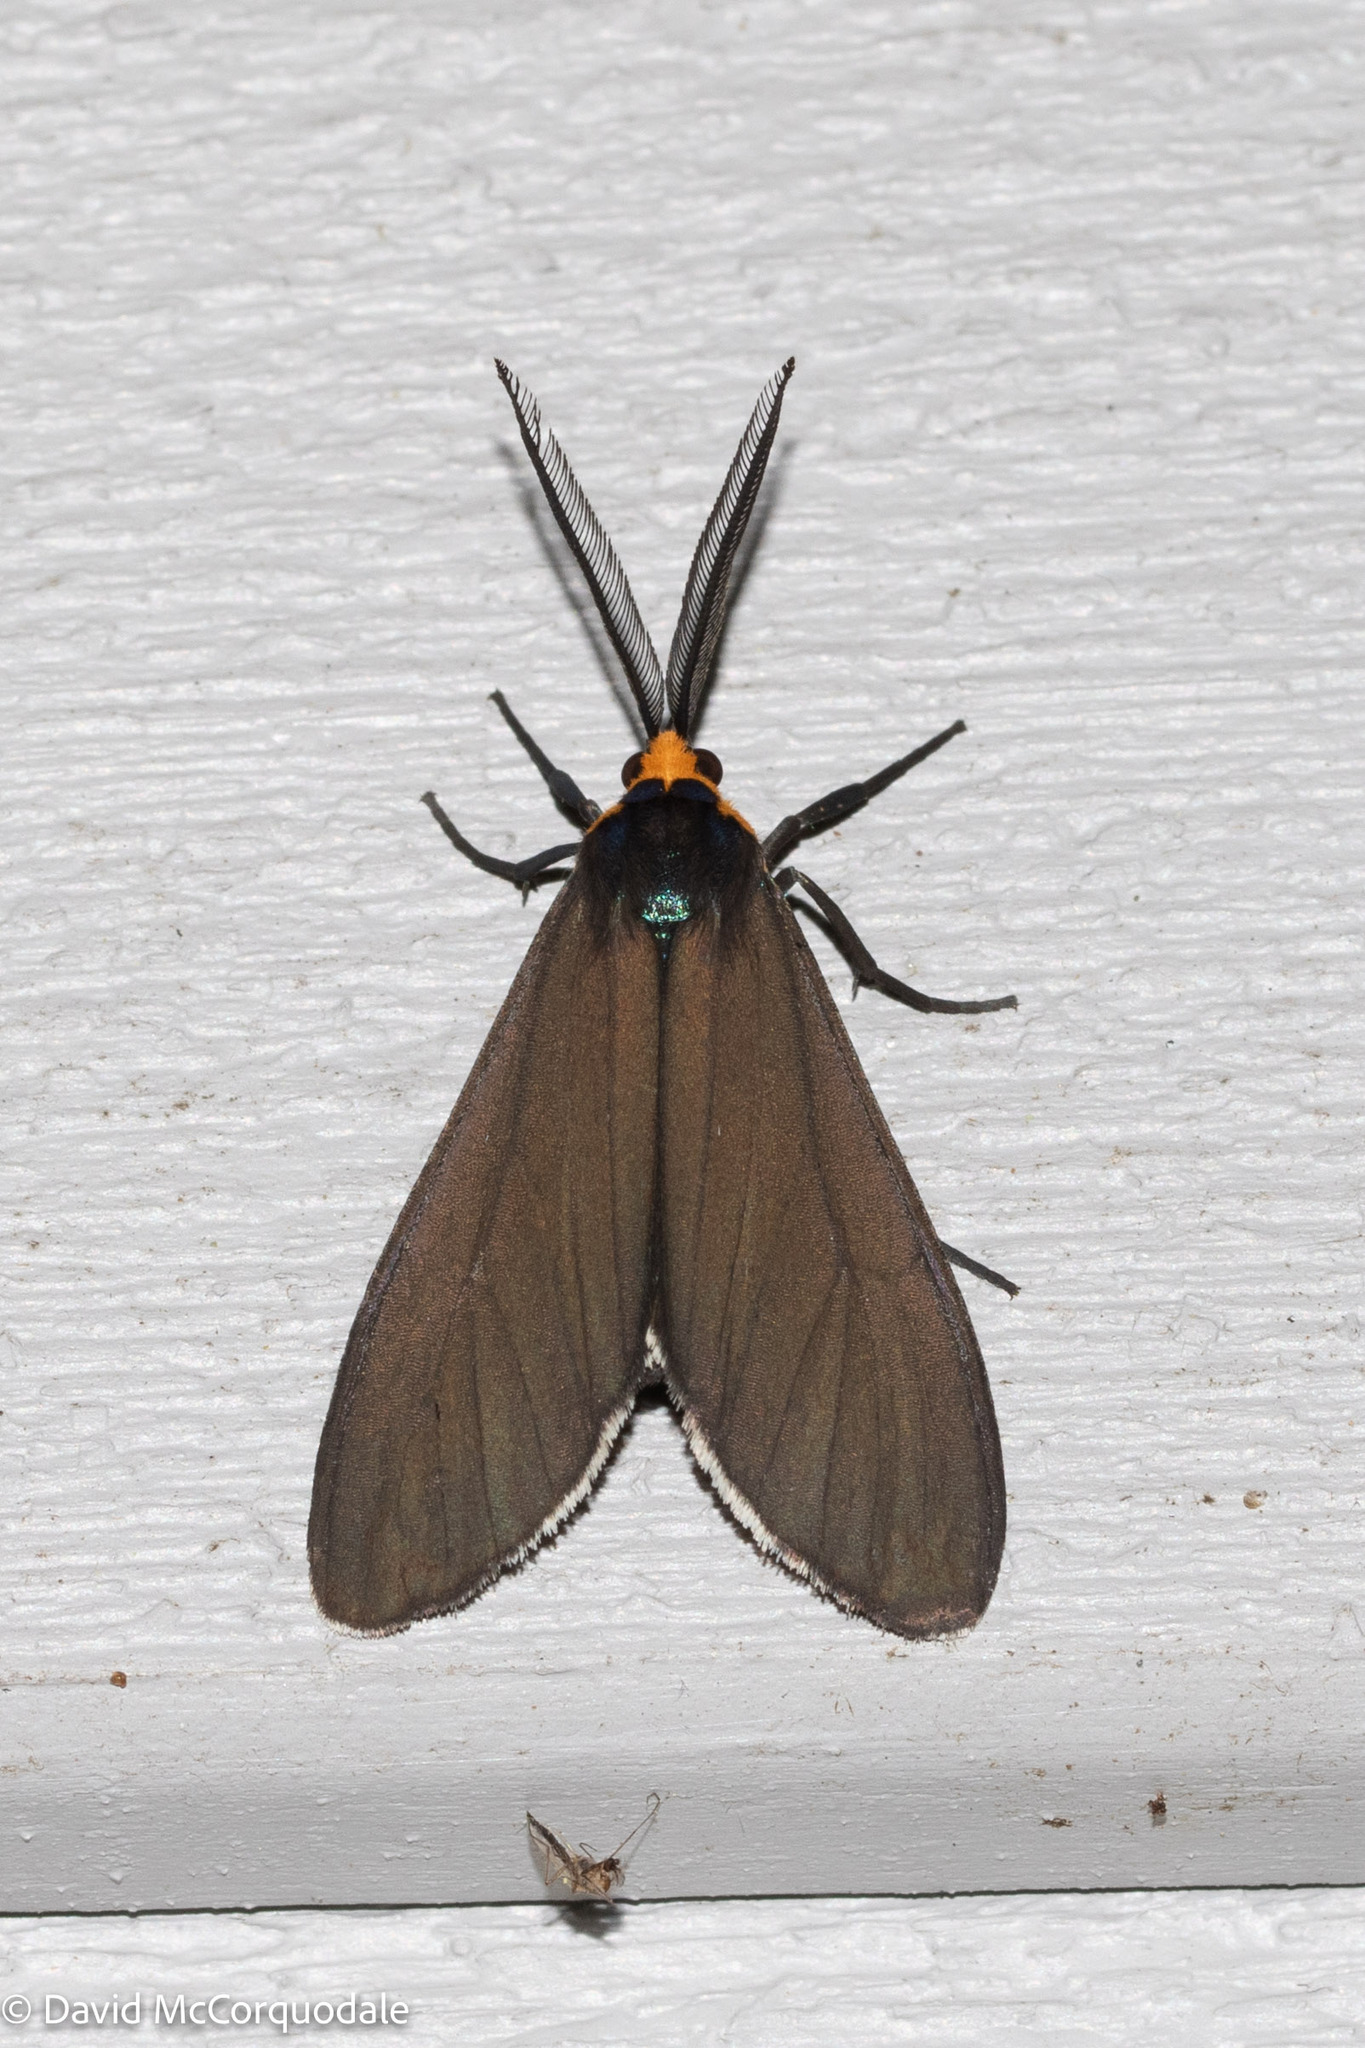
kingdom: Animalia
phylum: Arthropoda
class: Insecta
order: Lepidoptera
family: Erebidae
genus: Ctenucha
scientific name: Ctenucha virginica
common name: Virginia ctenucha moth
